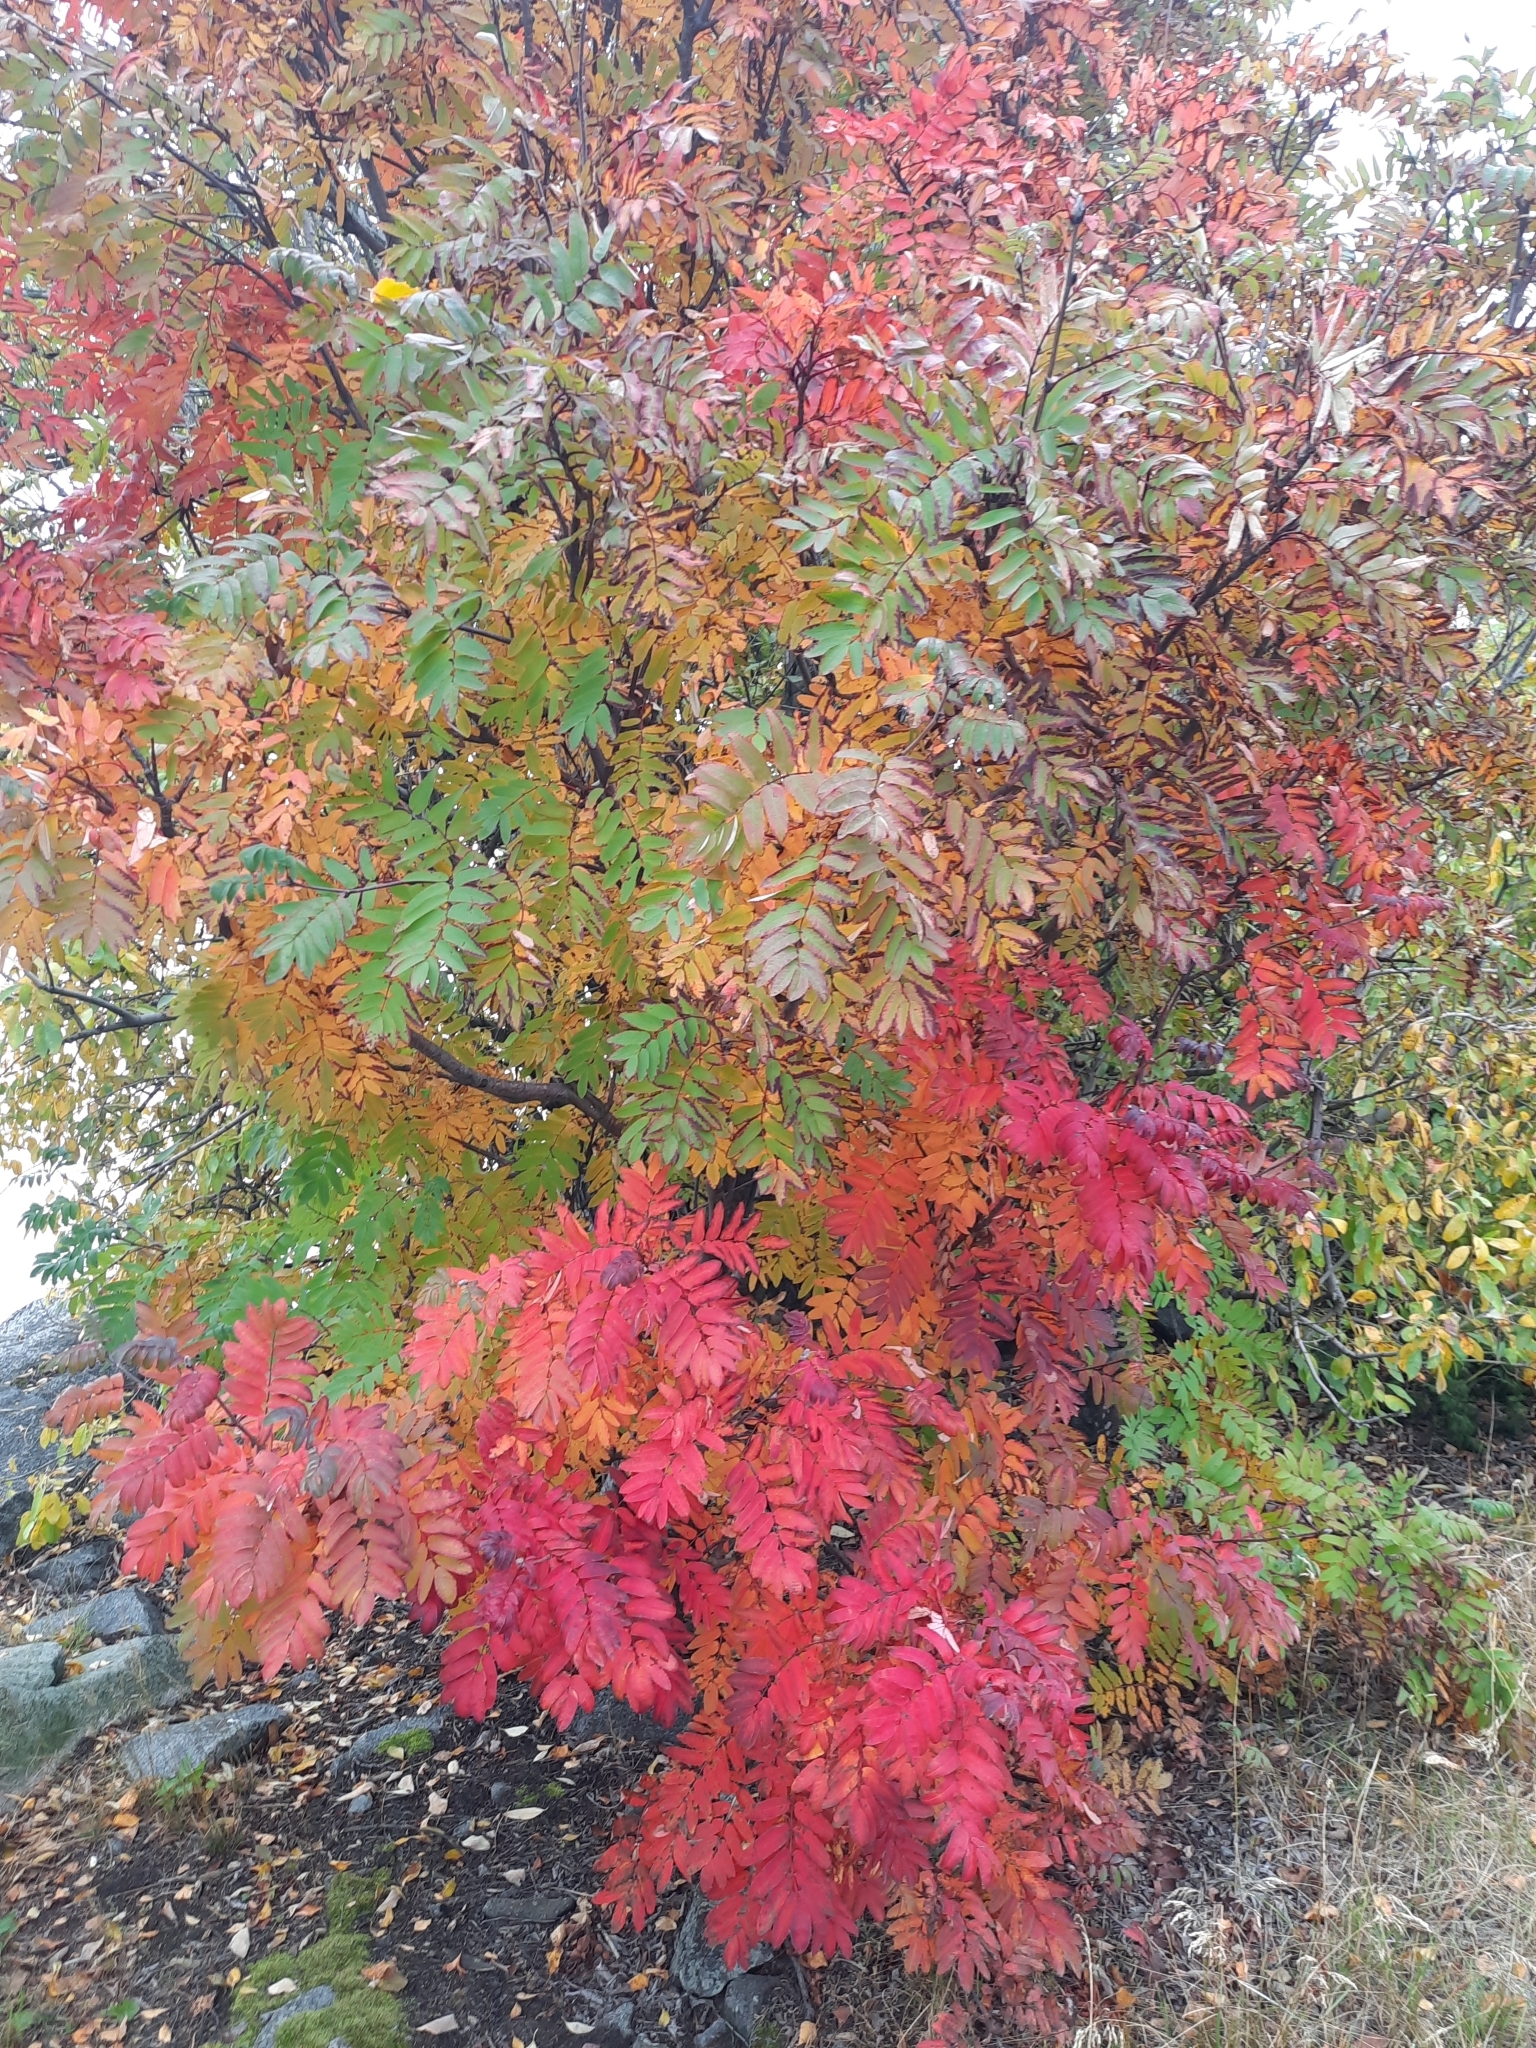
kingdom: Plantae
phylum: Tracheophyta
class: Magnoliopsida
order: Rosales
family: Rosaceae
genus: Sorbus
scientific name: Sorbus aucuparia
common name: Rowan
